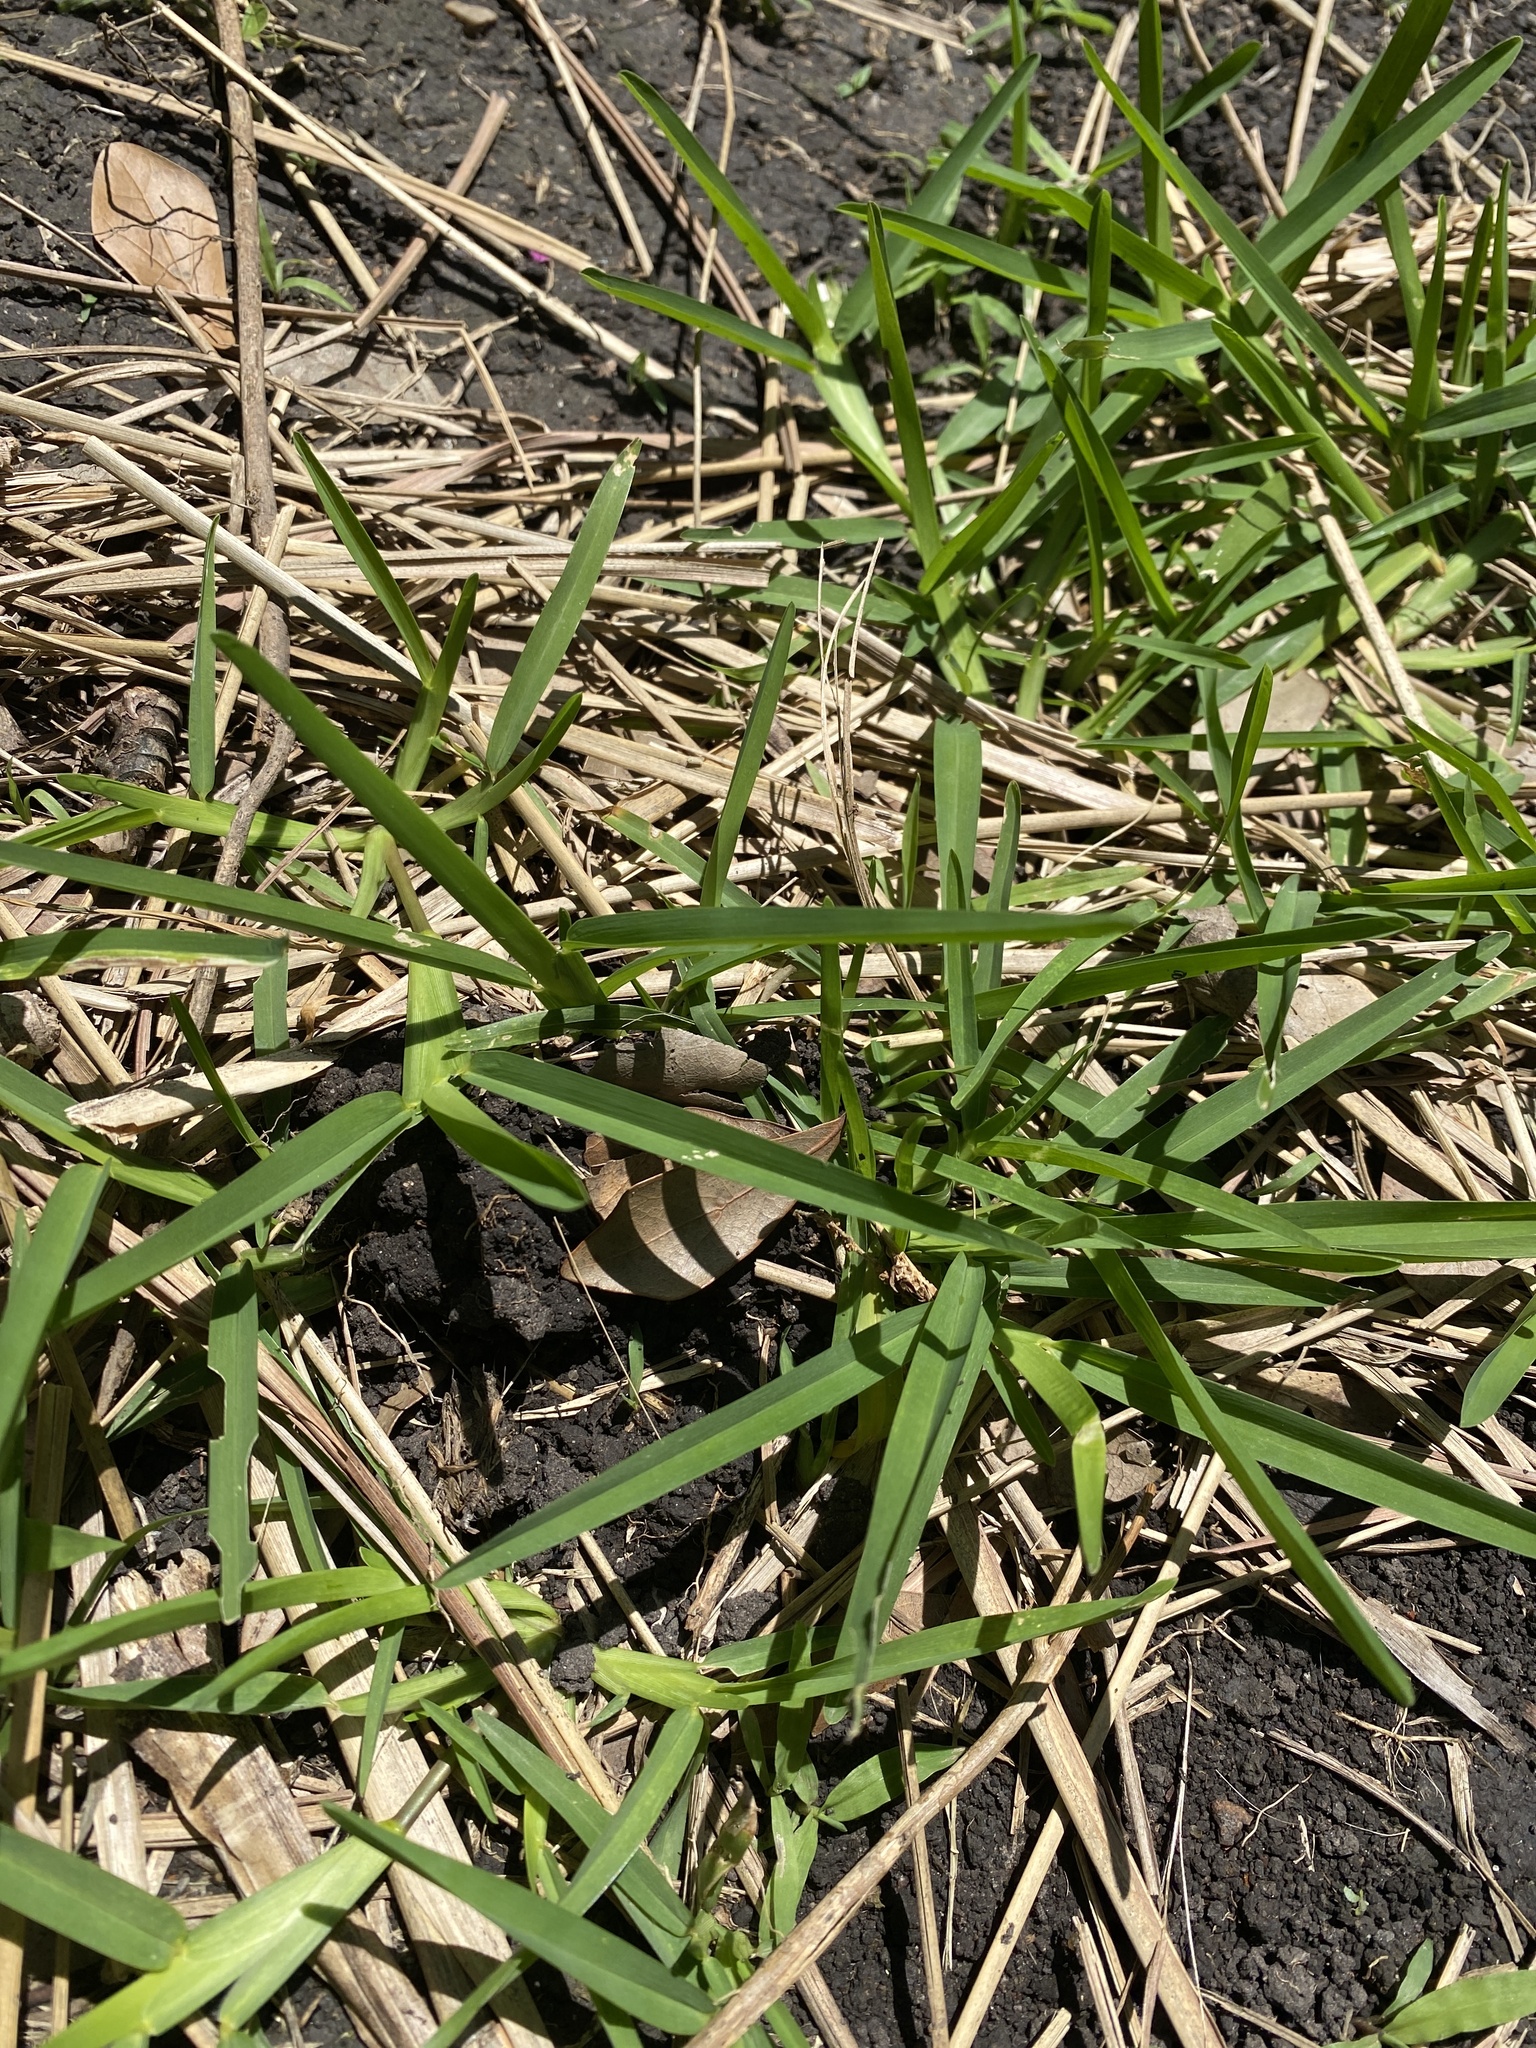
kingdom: Plantae
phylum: Tracheophyta
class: Liliopsida
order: Poales
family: Poaceae
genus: Stenotaphrum
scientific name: Stenotaphrum secundatum
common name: St. augustine grass
